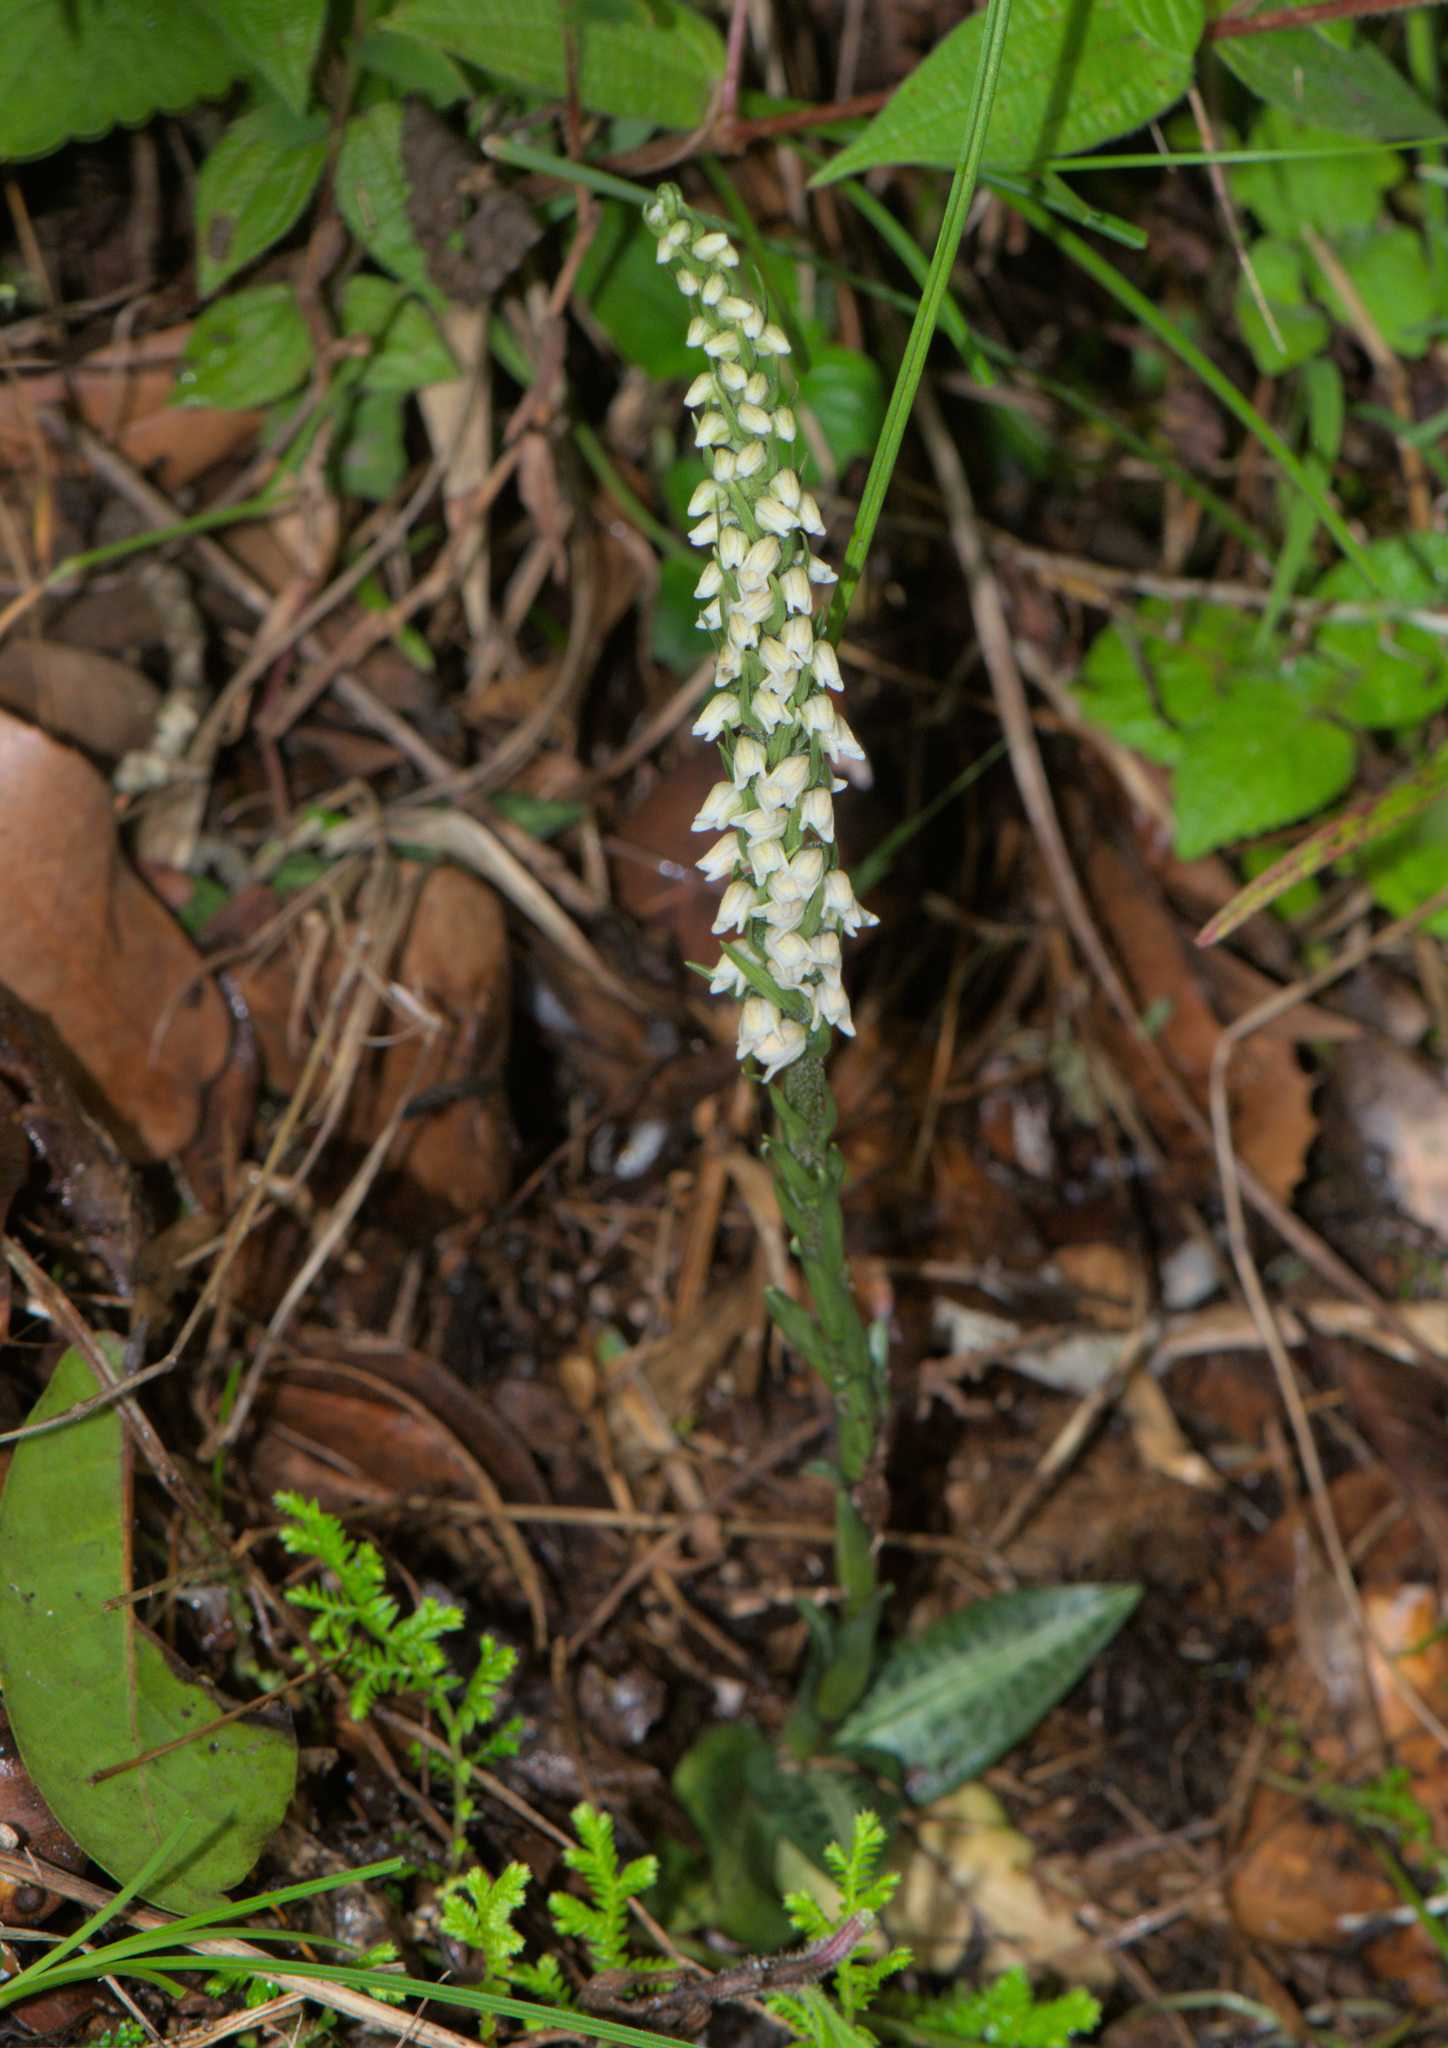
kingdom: Plantae
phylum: Tracheophyta
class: Liliopsida
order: Asparagales
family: Orchidaceae
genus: Goodyera
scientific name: Goodyera repens
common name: Creeping lady's-tresses
